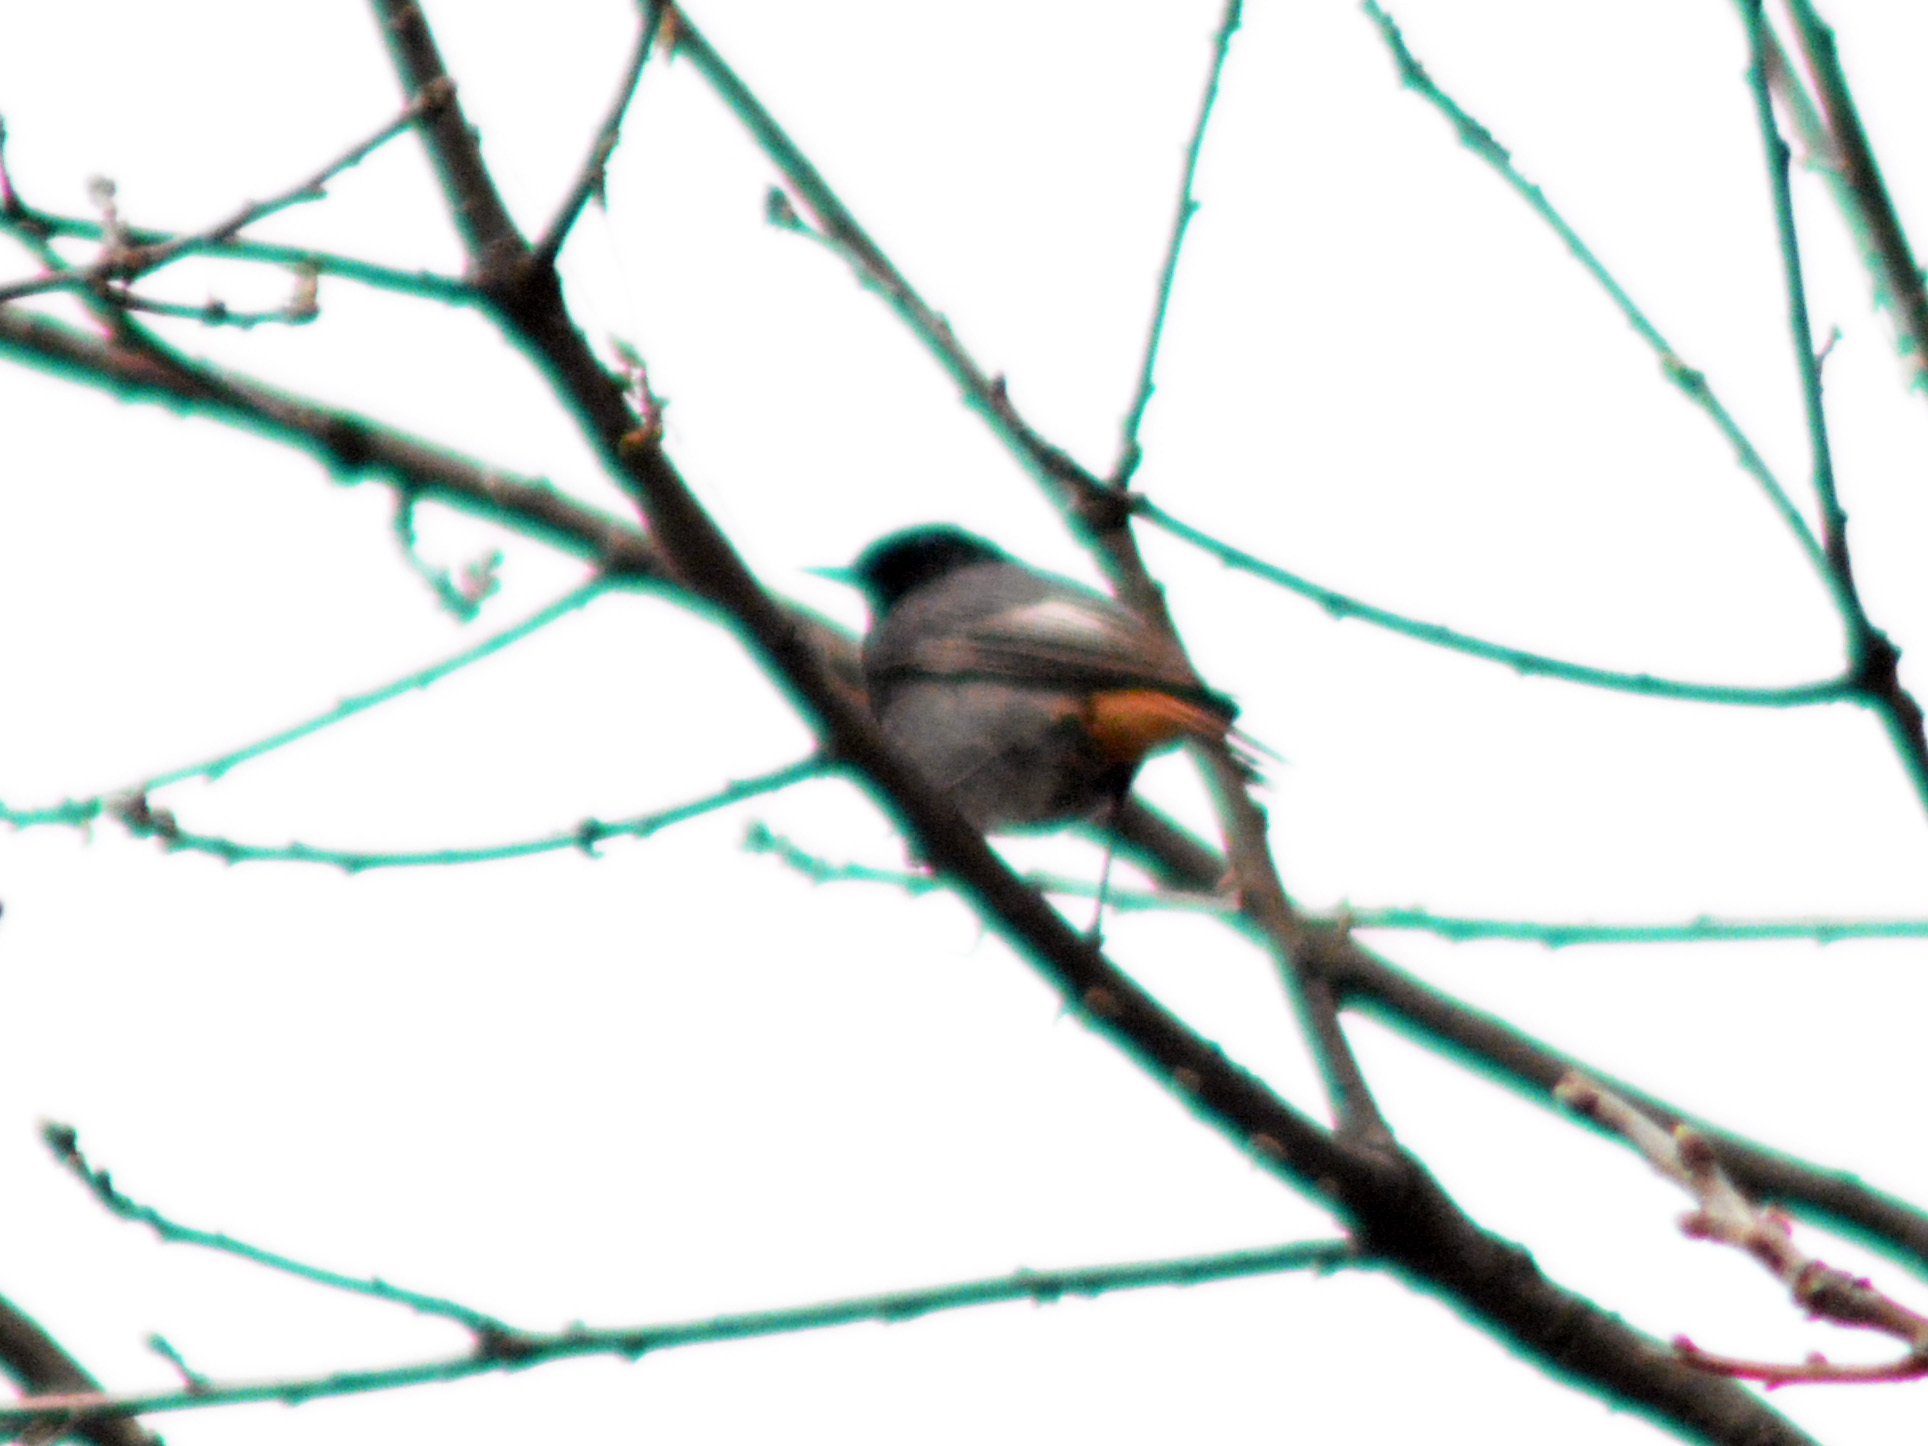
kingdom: Animalia
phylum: Chordata
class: Aves
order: Passeriformes
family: Muscicapidae
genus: Phoenicurus
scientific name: Phoenicurus ochruros
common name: Black redstart
